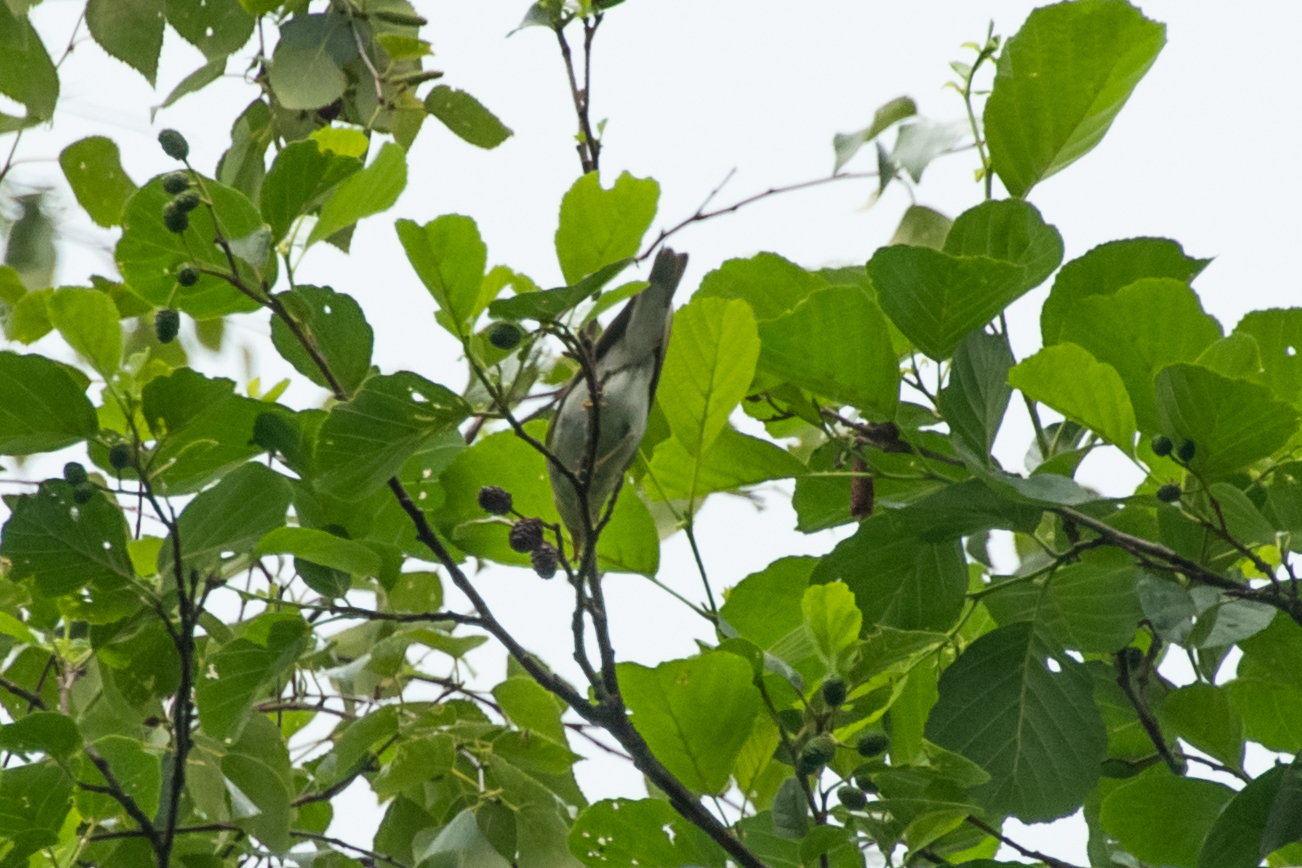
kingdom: Animalia
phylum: Chordata
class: Aves
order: Passeriformes
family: Phylloscopidae
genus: Phylloscopus
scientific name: Phylloscopus sibillatrix
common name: Wood warbler
